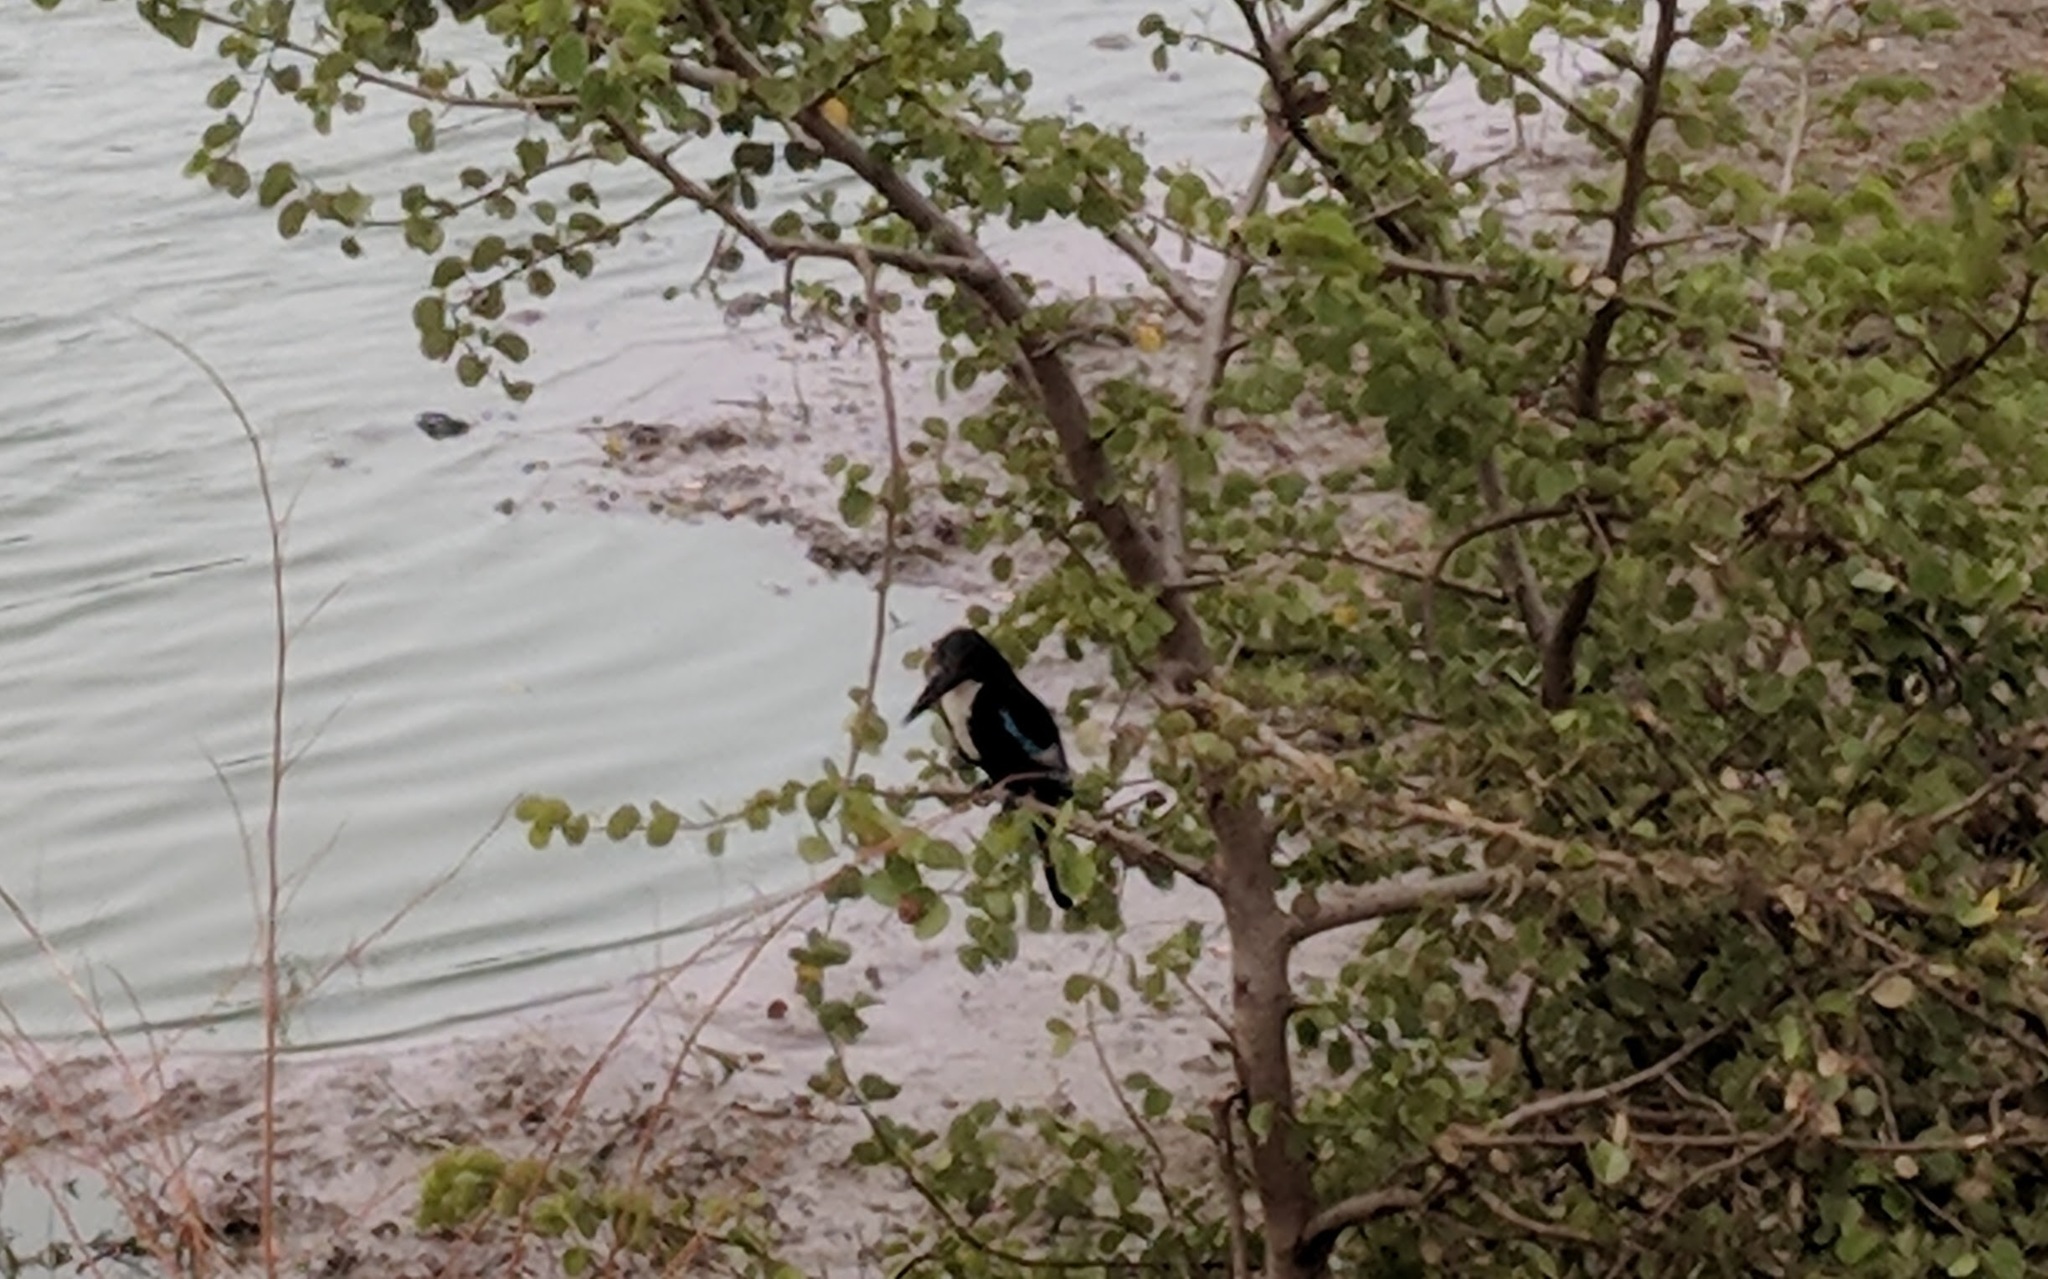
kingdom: Animalia
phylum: Chordata
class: Aves
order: Coraciiformes
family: Alcedinidae
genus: Halcyon
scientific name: Halcyon smyrnensis
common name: White-throated kingfisher
